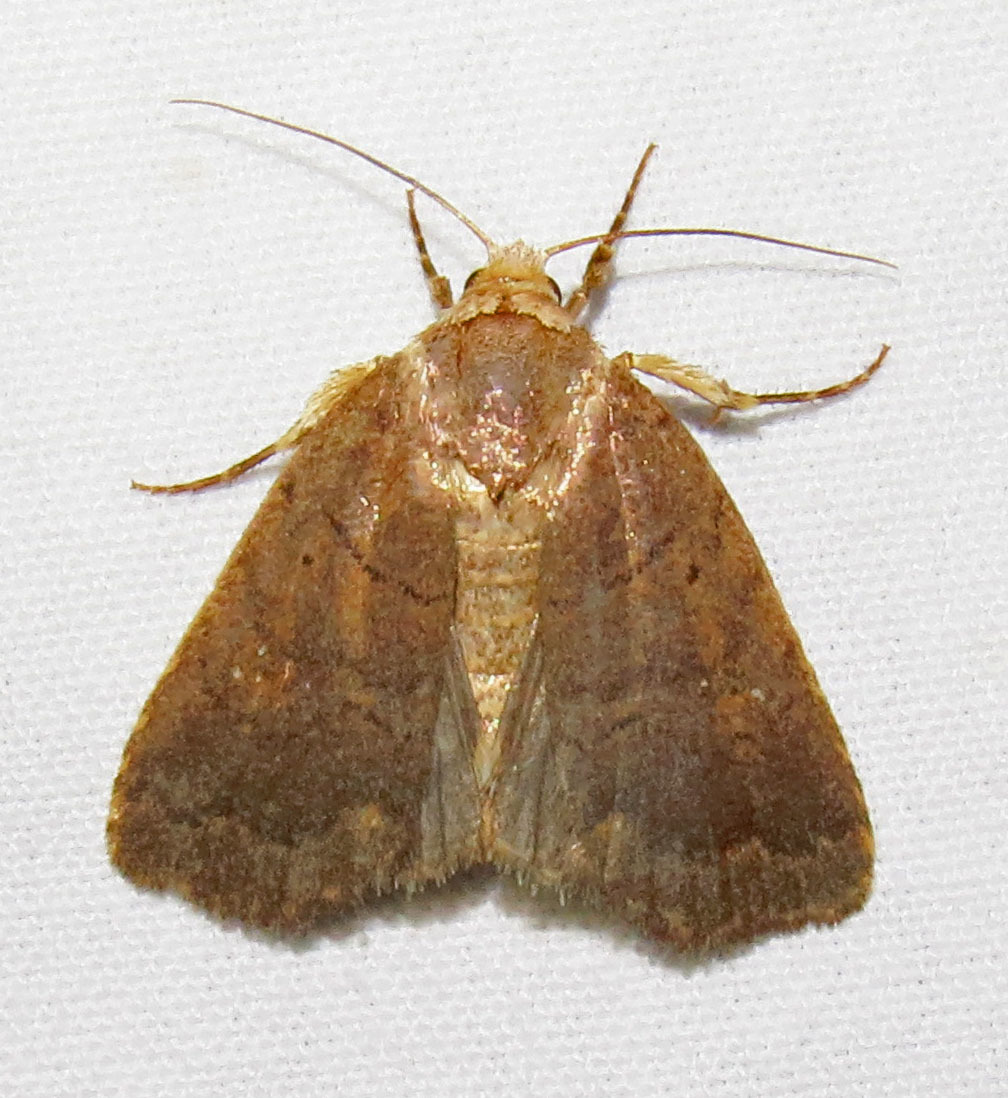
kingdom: Animalia
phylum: Arthropoda
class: Insecta
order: Lepidoptera
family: Noctuidae
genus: Athetis
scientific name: Athetis tarda
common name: Slowpoke moth
